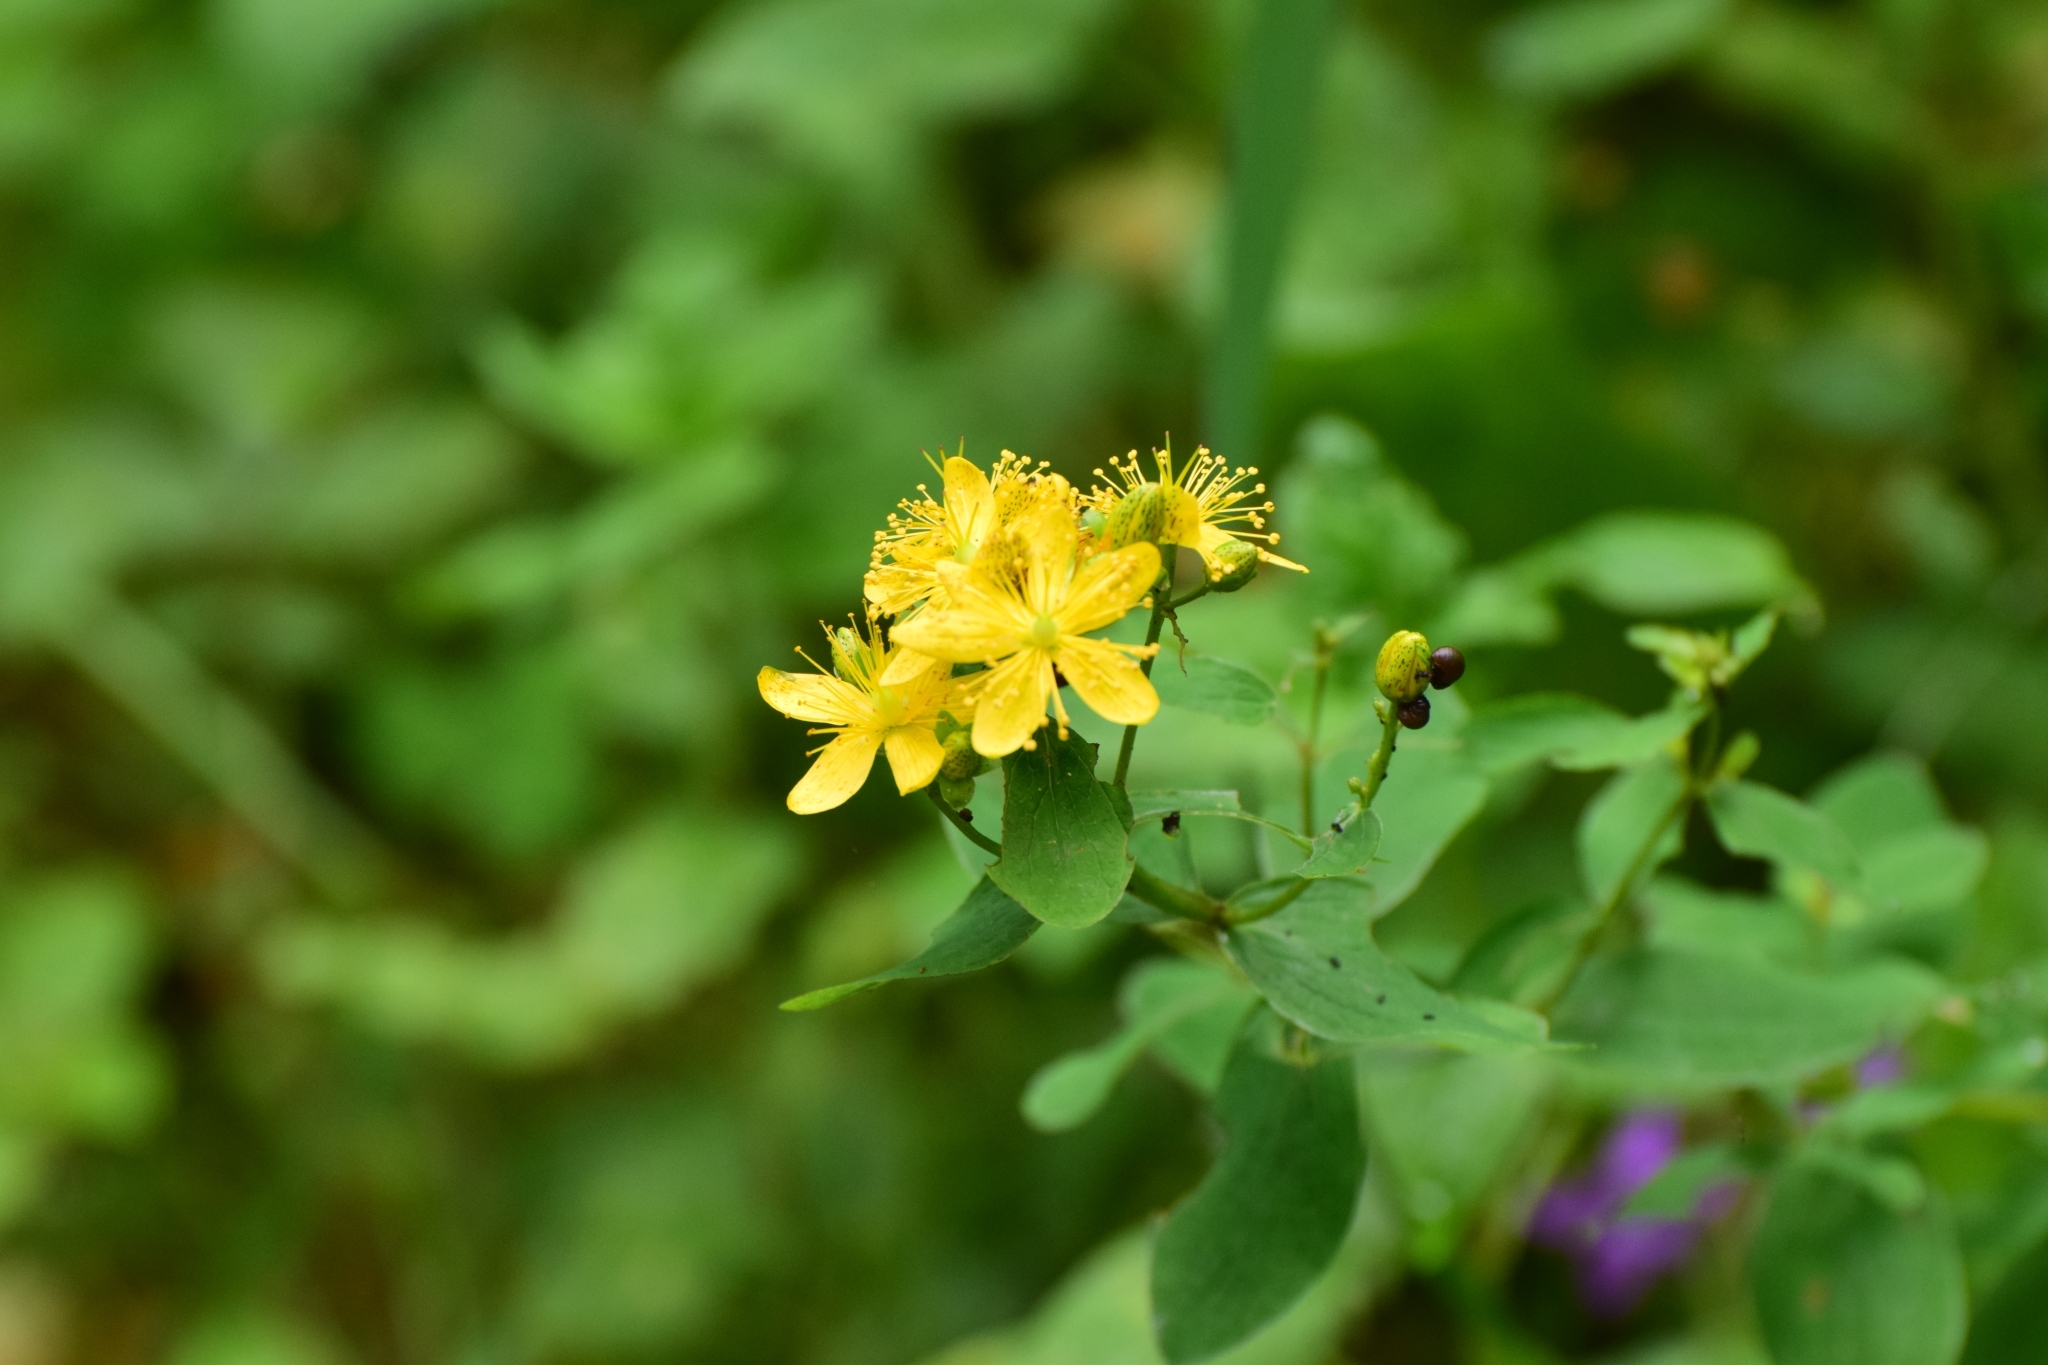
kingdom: Plantae
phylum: Tracheophyta
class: Magnoliopsida
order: Malpighiales
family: Hypericaceae
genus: Hypericum
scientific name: Hypericum maculatum
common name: Imperforate st. john's-wort
